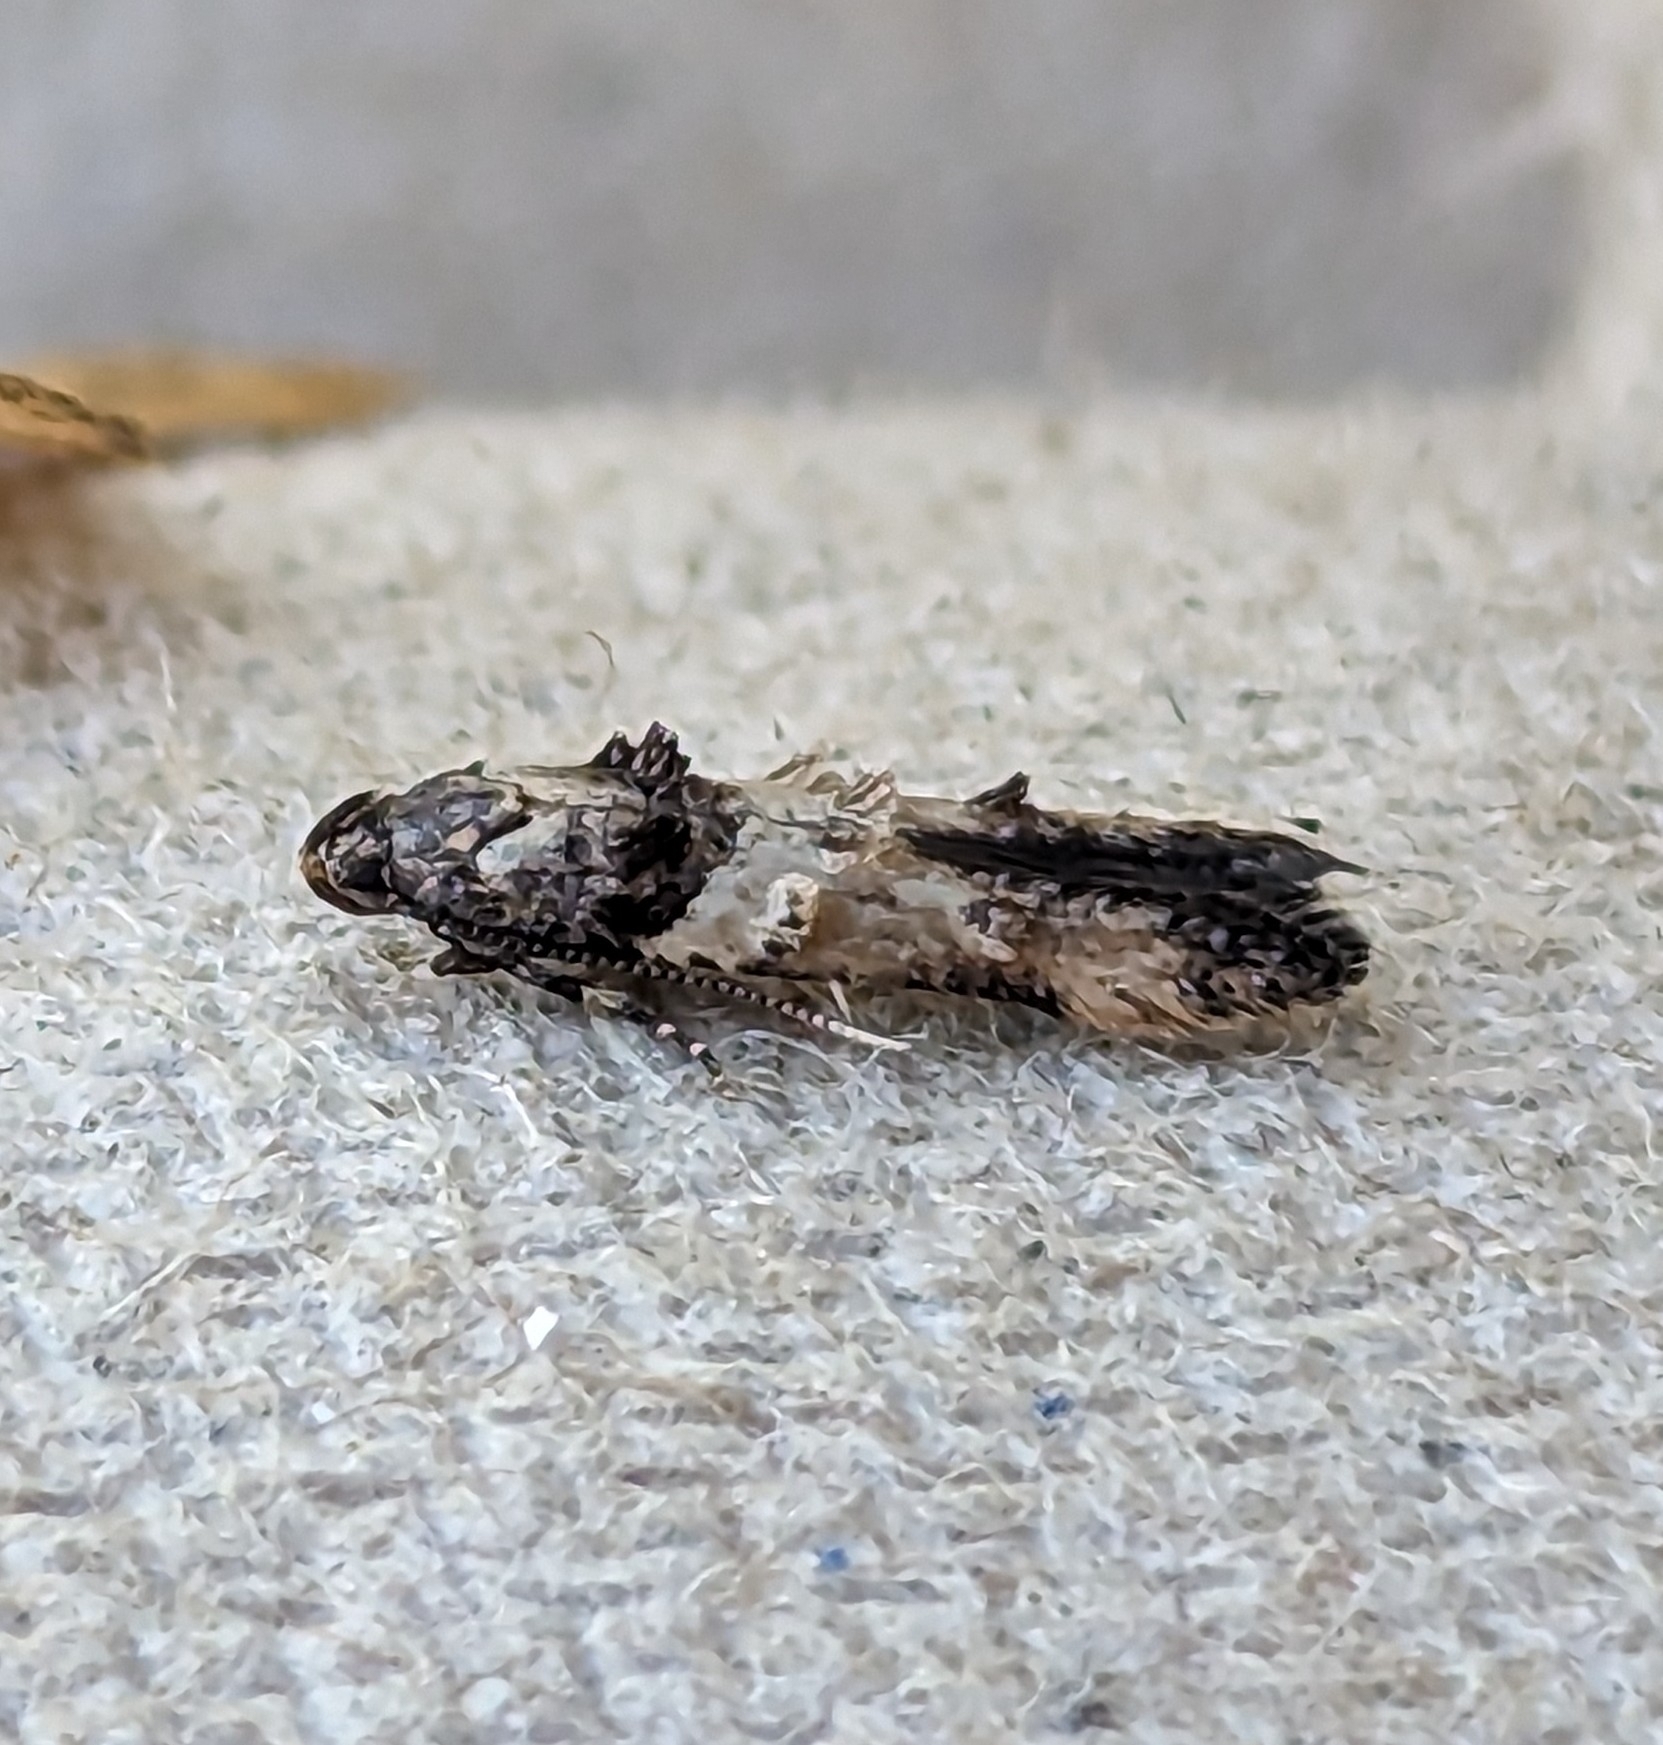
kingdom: Animalia
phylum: Arthropoda
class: Insecta
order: Lepidoptera
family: Cosmopterigidae
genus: Walshia
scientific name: Walshia miscecolorella
